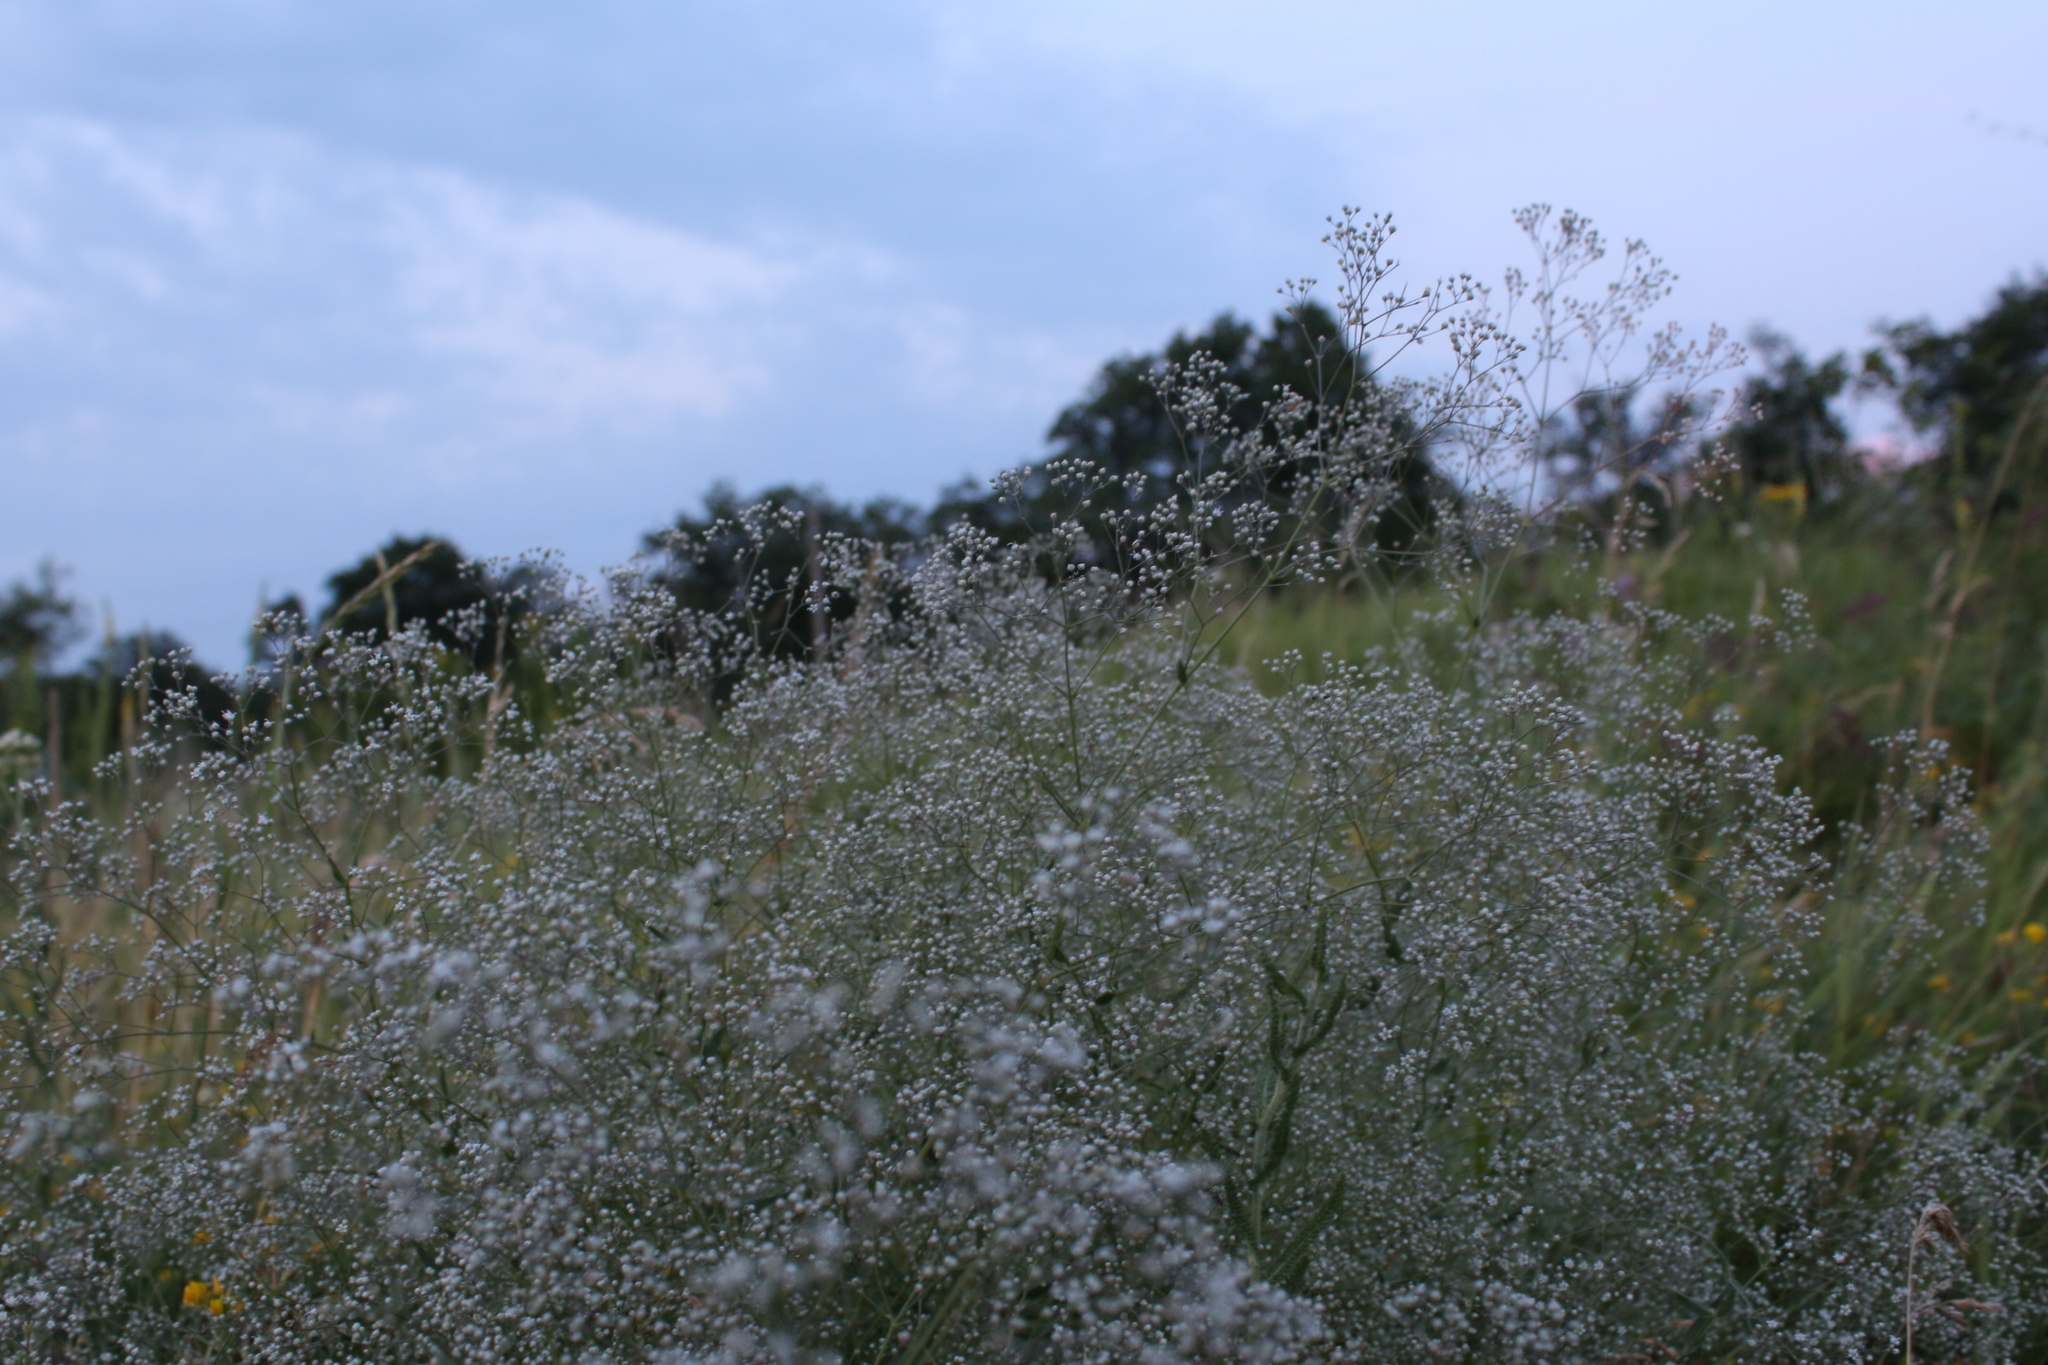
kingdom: Plantae
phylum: Tracheophyta
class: Magnoliopsida
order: Caryophyllales
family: Caryophyllaceae
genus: Gypsophila
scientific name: Gypsophila paniculata
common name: Baby's-breath
